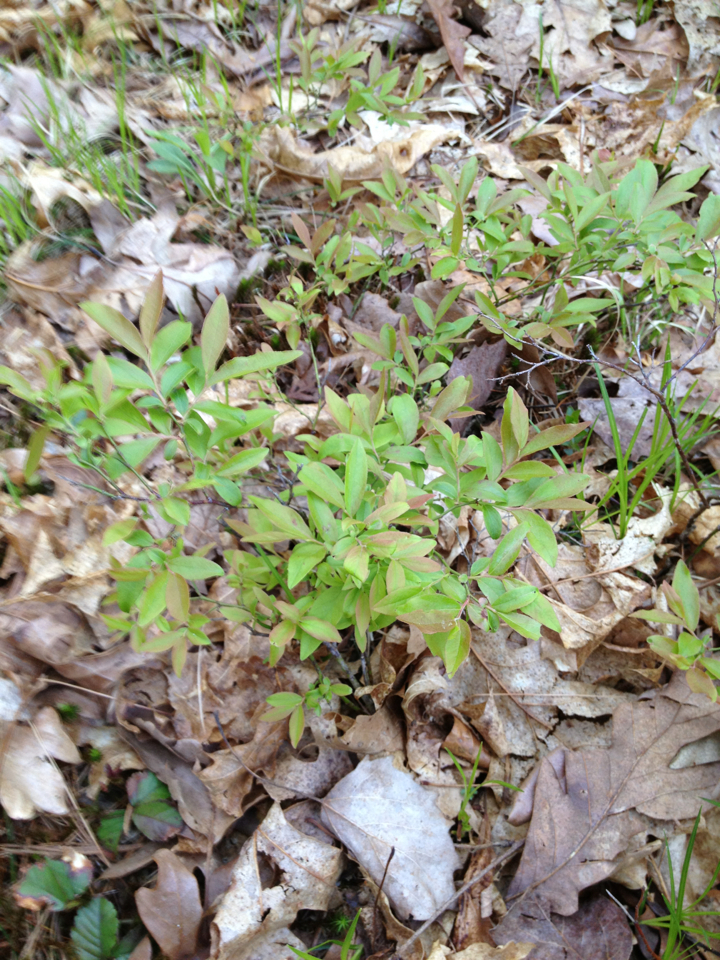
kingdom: Plantae
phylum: Tracheophyta
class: Magnoliopsida
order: Ericales
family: Ericaceae
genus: Vaccinium
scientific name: Vaccinium angustifolium
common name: Early lowbush blueberry
